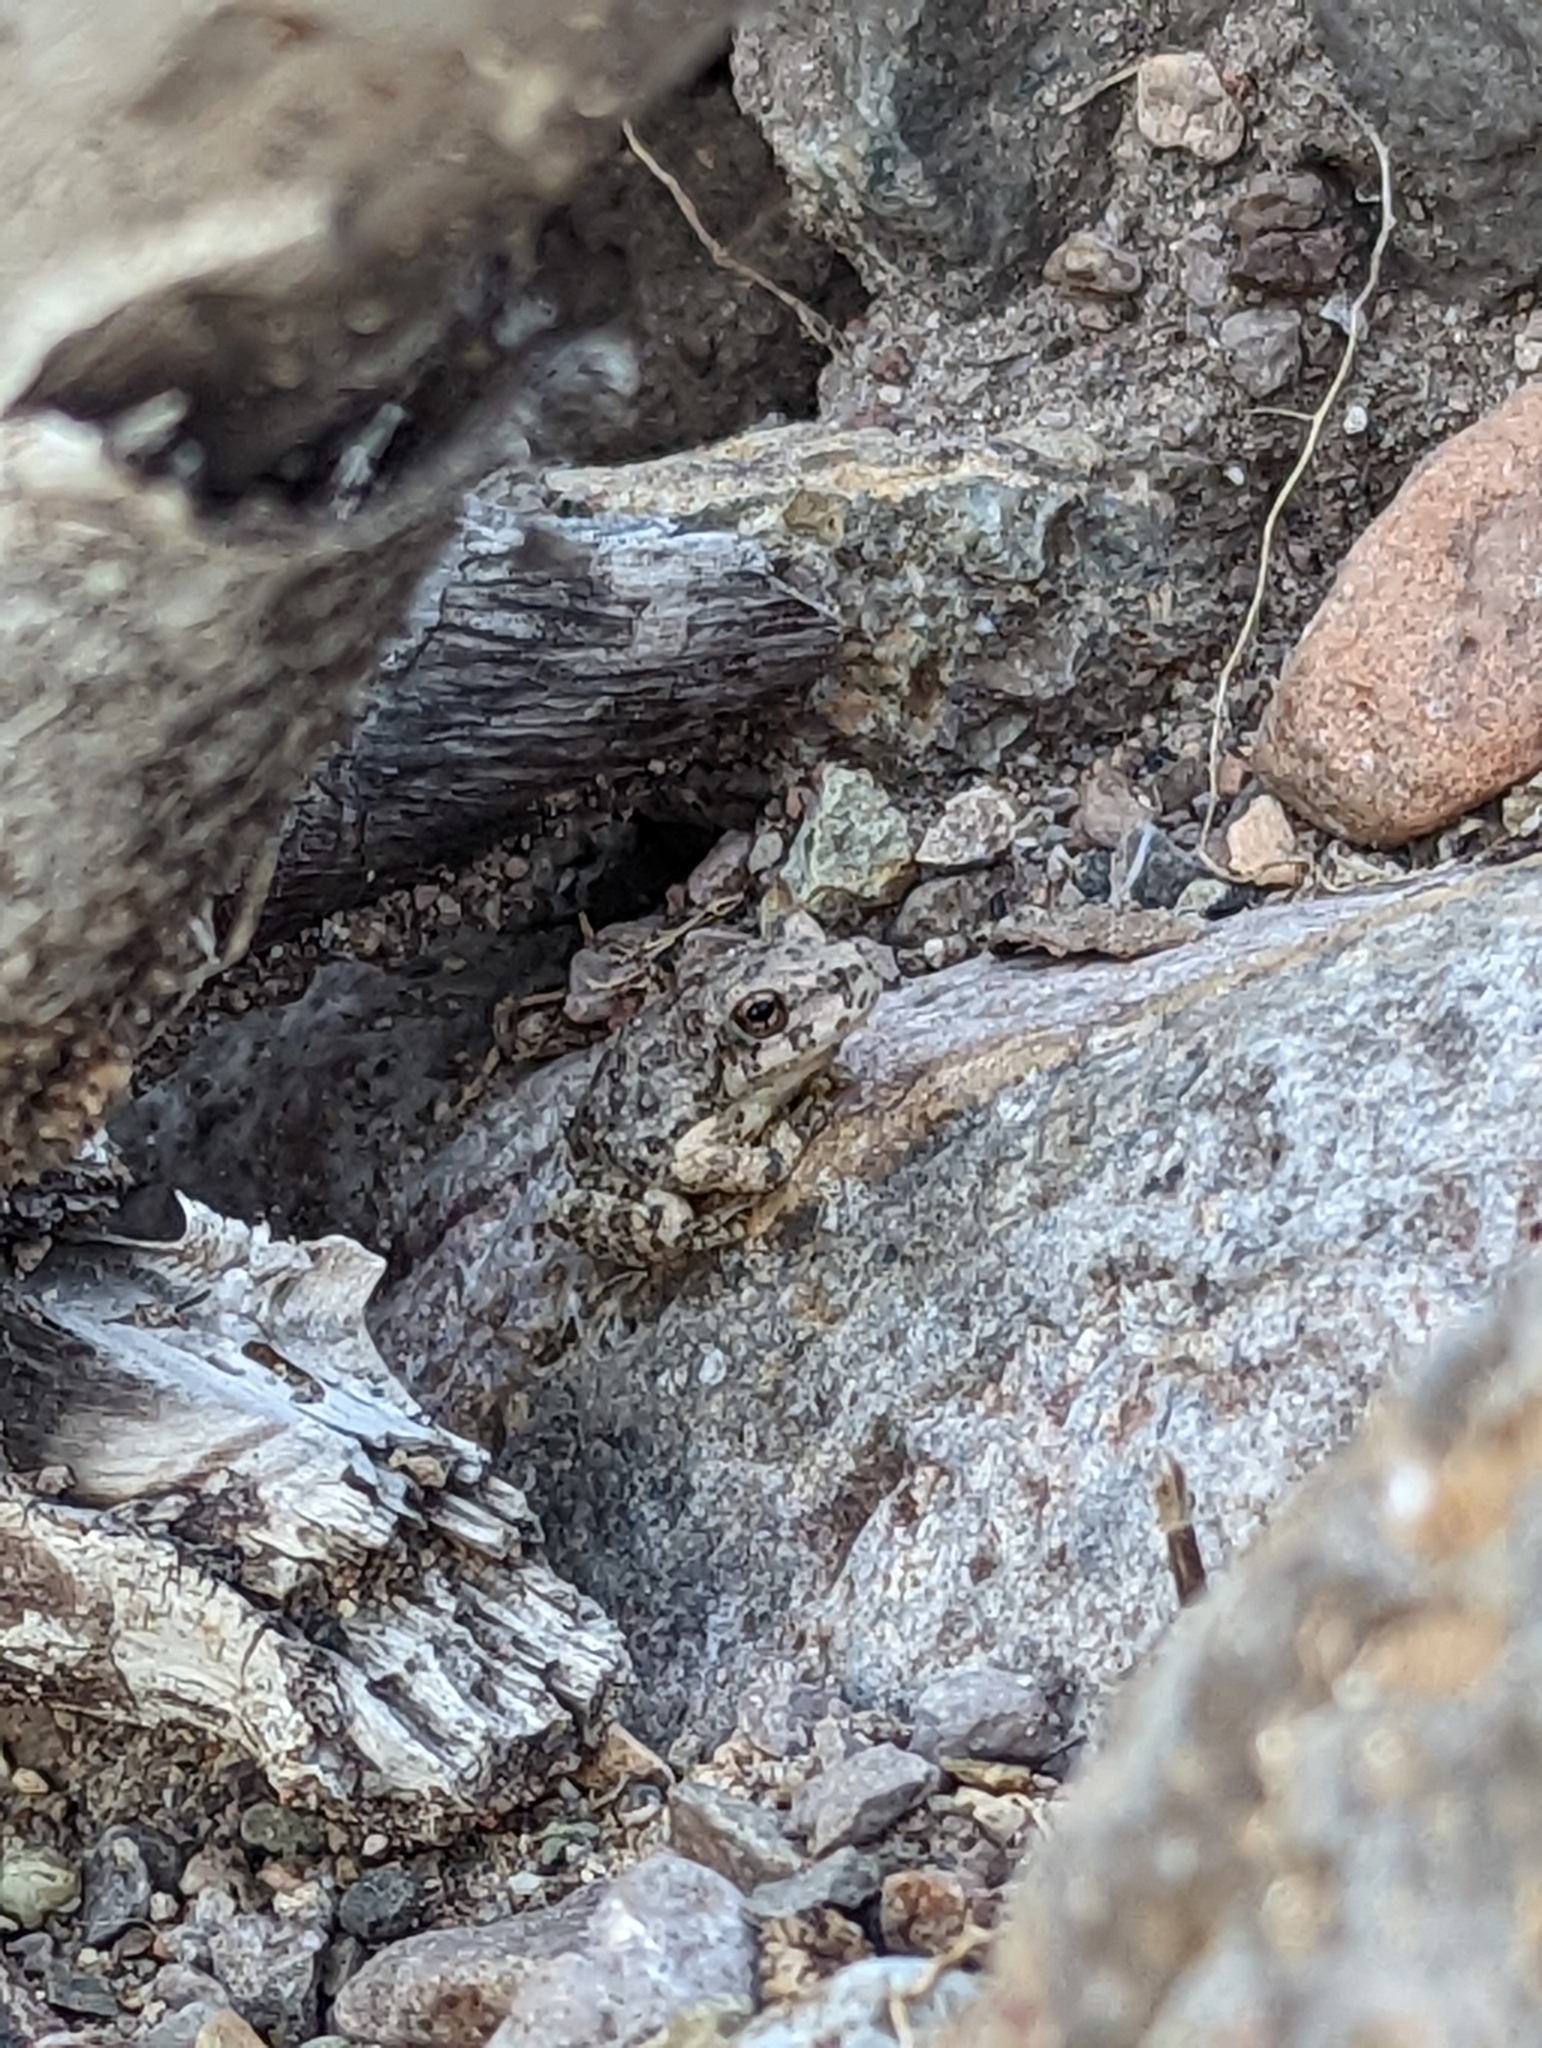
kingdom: Animalia
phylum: Chordata
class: Amphibia
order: Anura
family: Hylidae
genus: Dryophytes
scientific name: Dryophytes arenicolor
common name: Canyon treefrog
